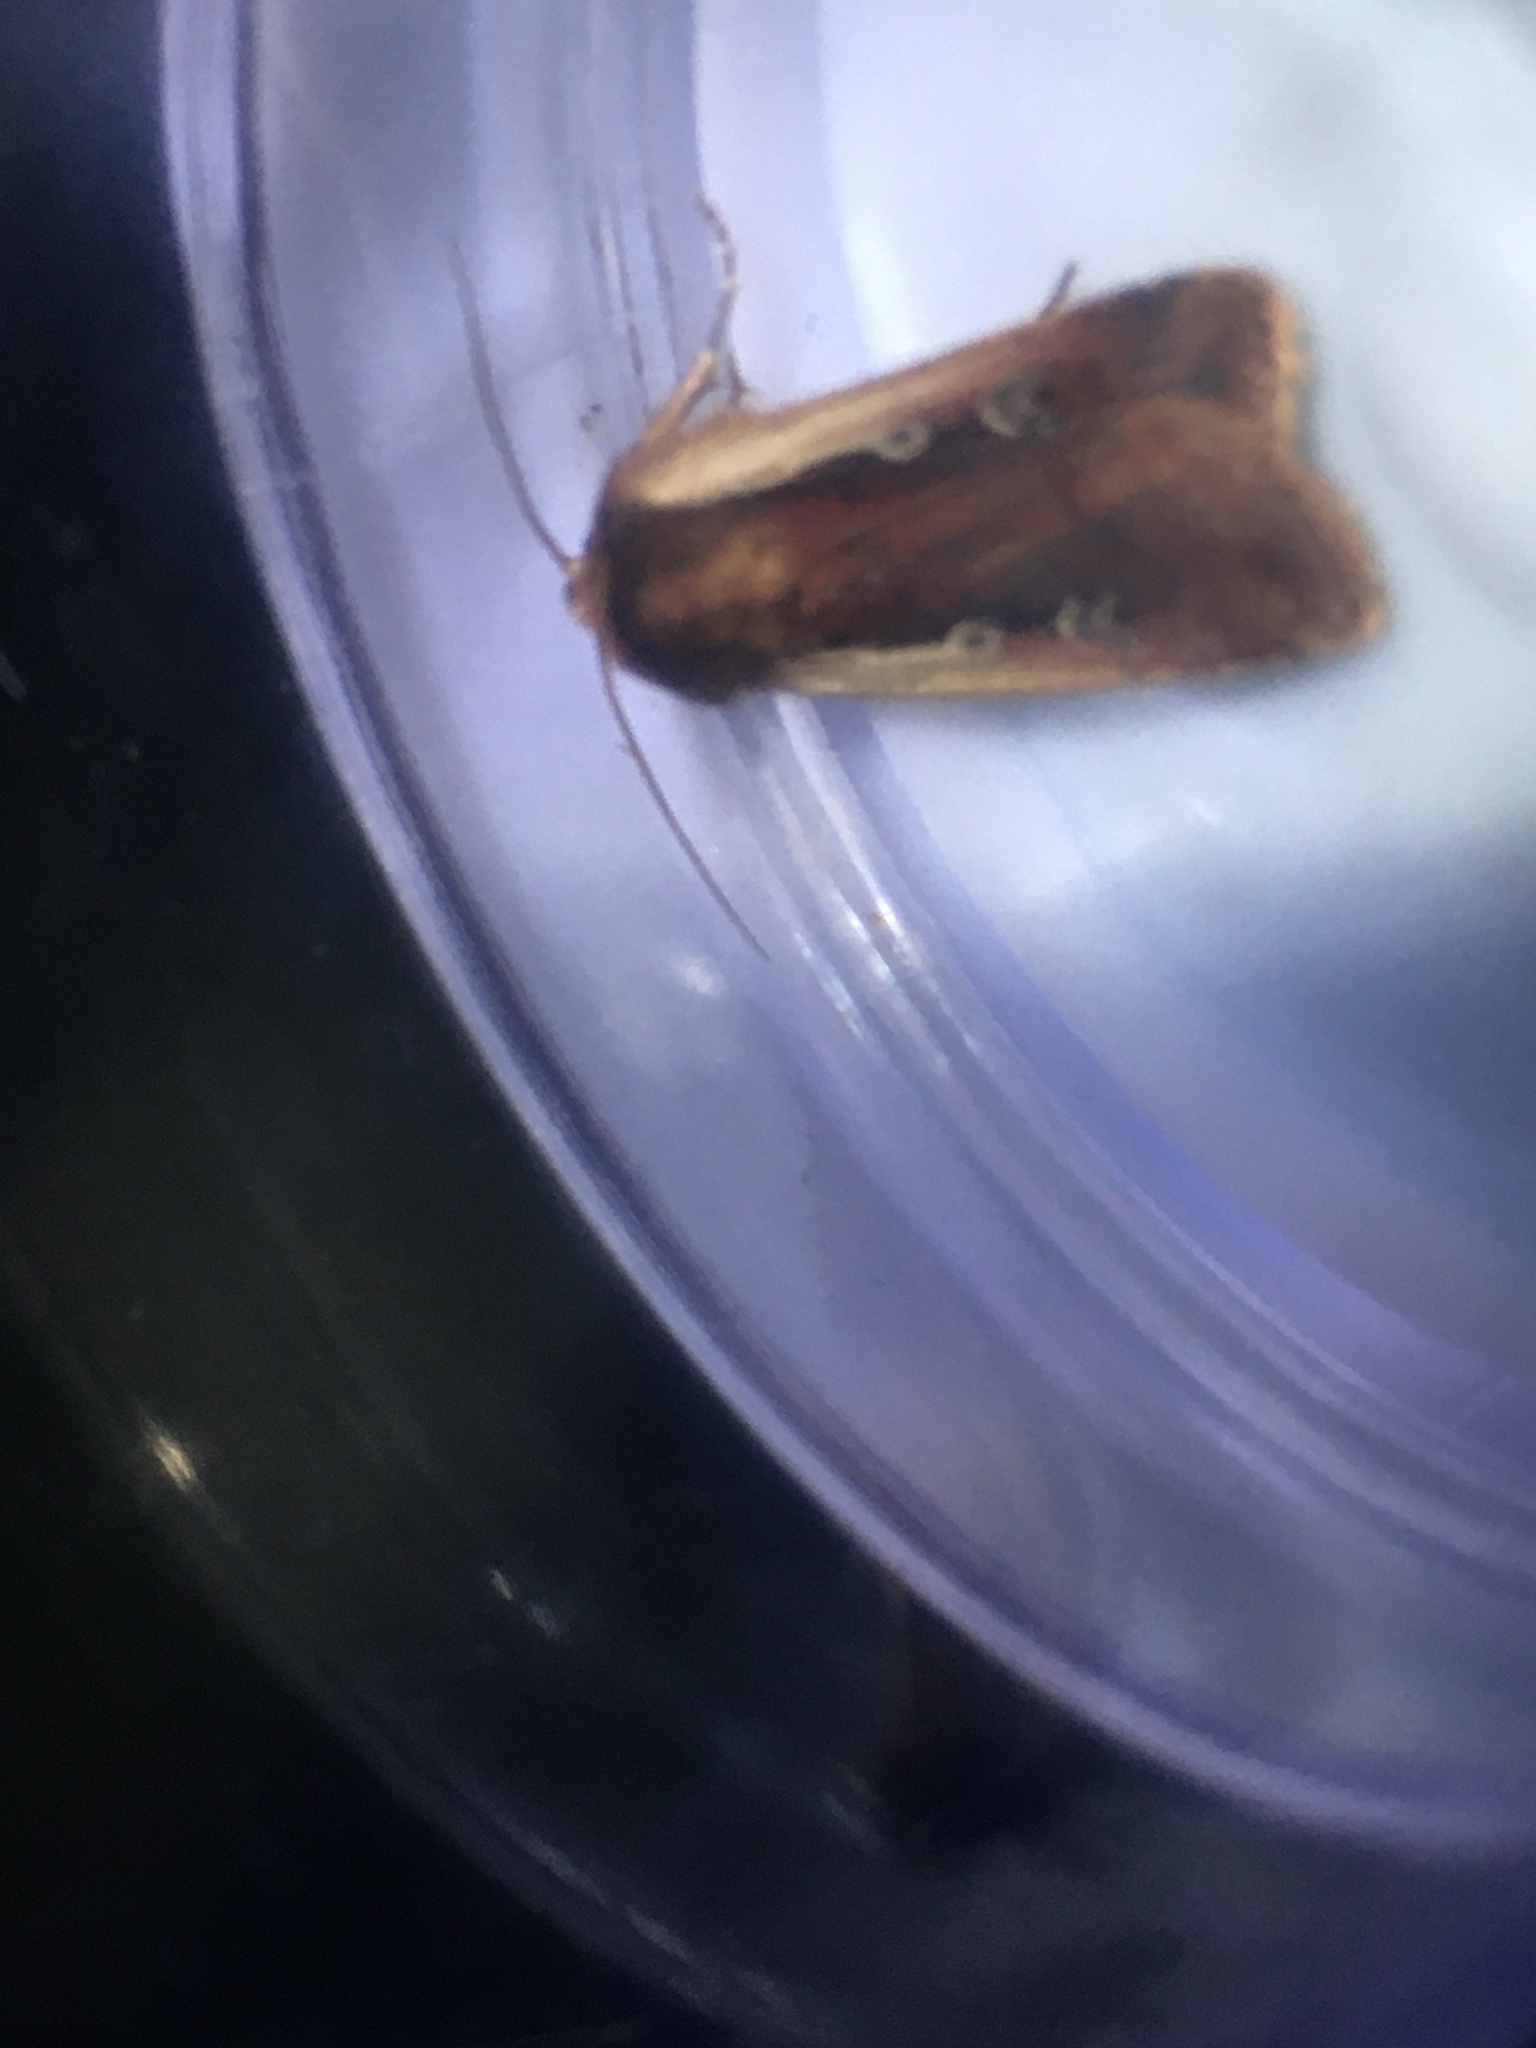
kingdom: Animalia
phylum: Arthropoda
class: Insecta
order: Lepidoptera
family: Noctuidae
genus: Ochropleura
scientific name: Ochropleura plecta
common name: Flame shoulder
